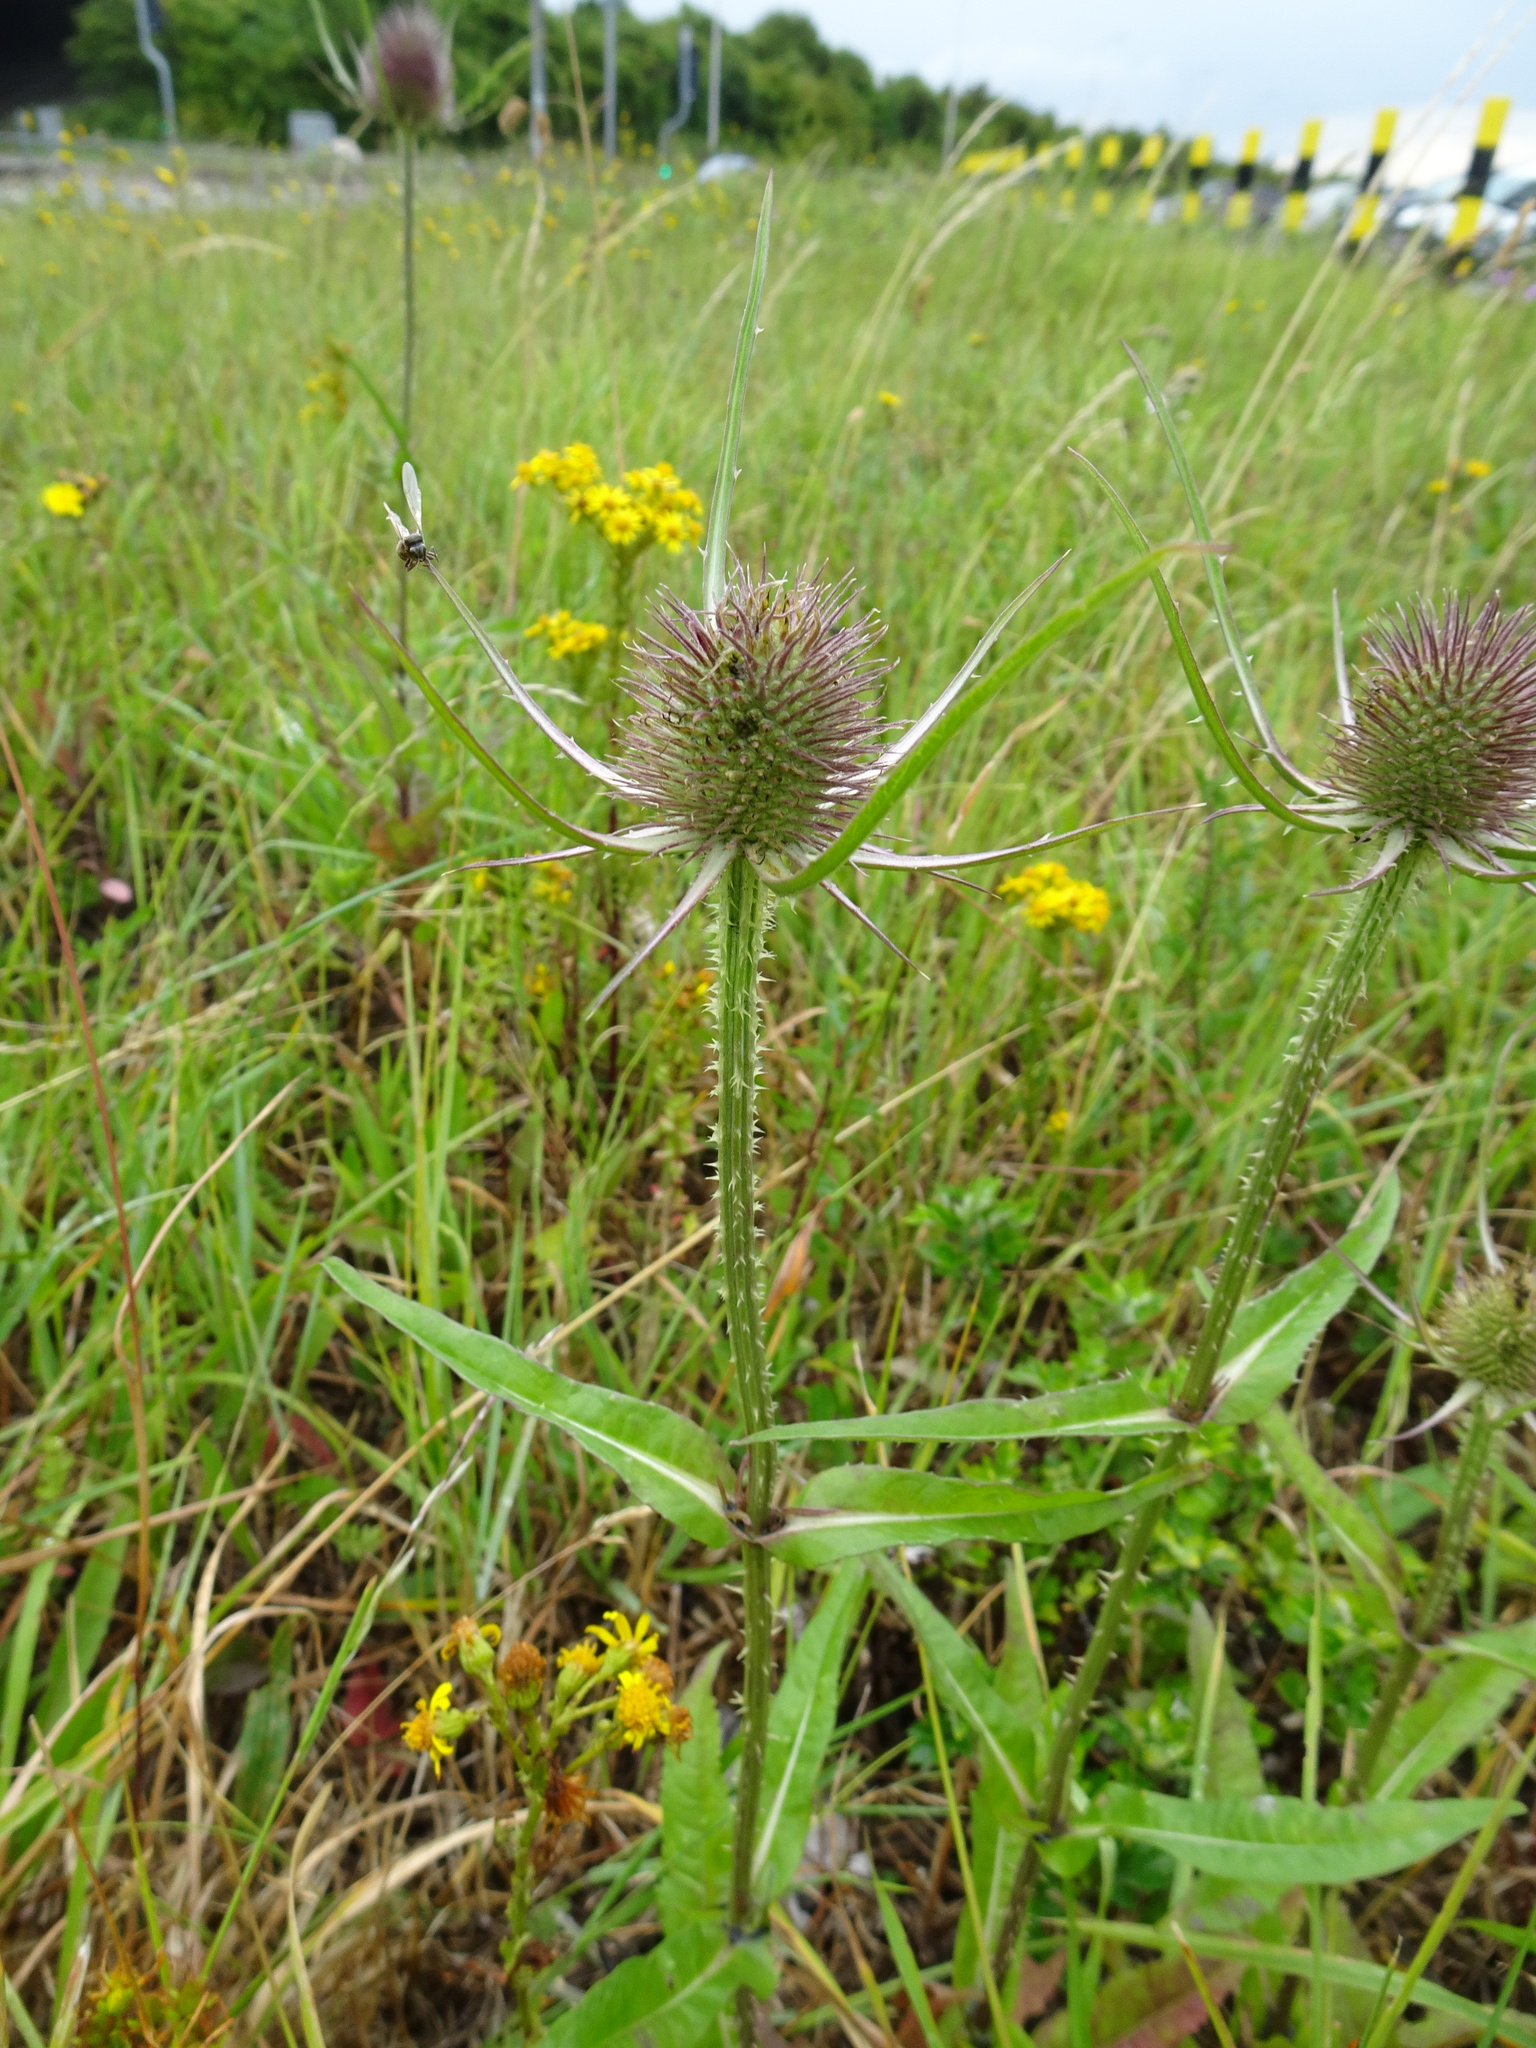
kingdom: Plantae
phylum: Tracheophyta
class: Magnoliopsida
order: Dipsacales
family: Caprifoliaceae
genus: Dipsacus
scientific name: Dipsacus fullonum
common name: Teasel
